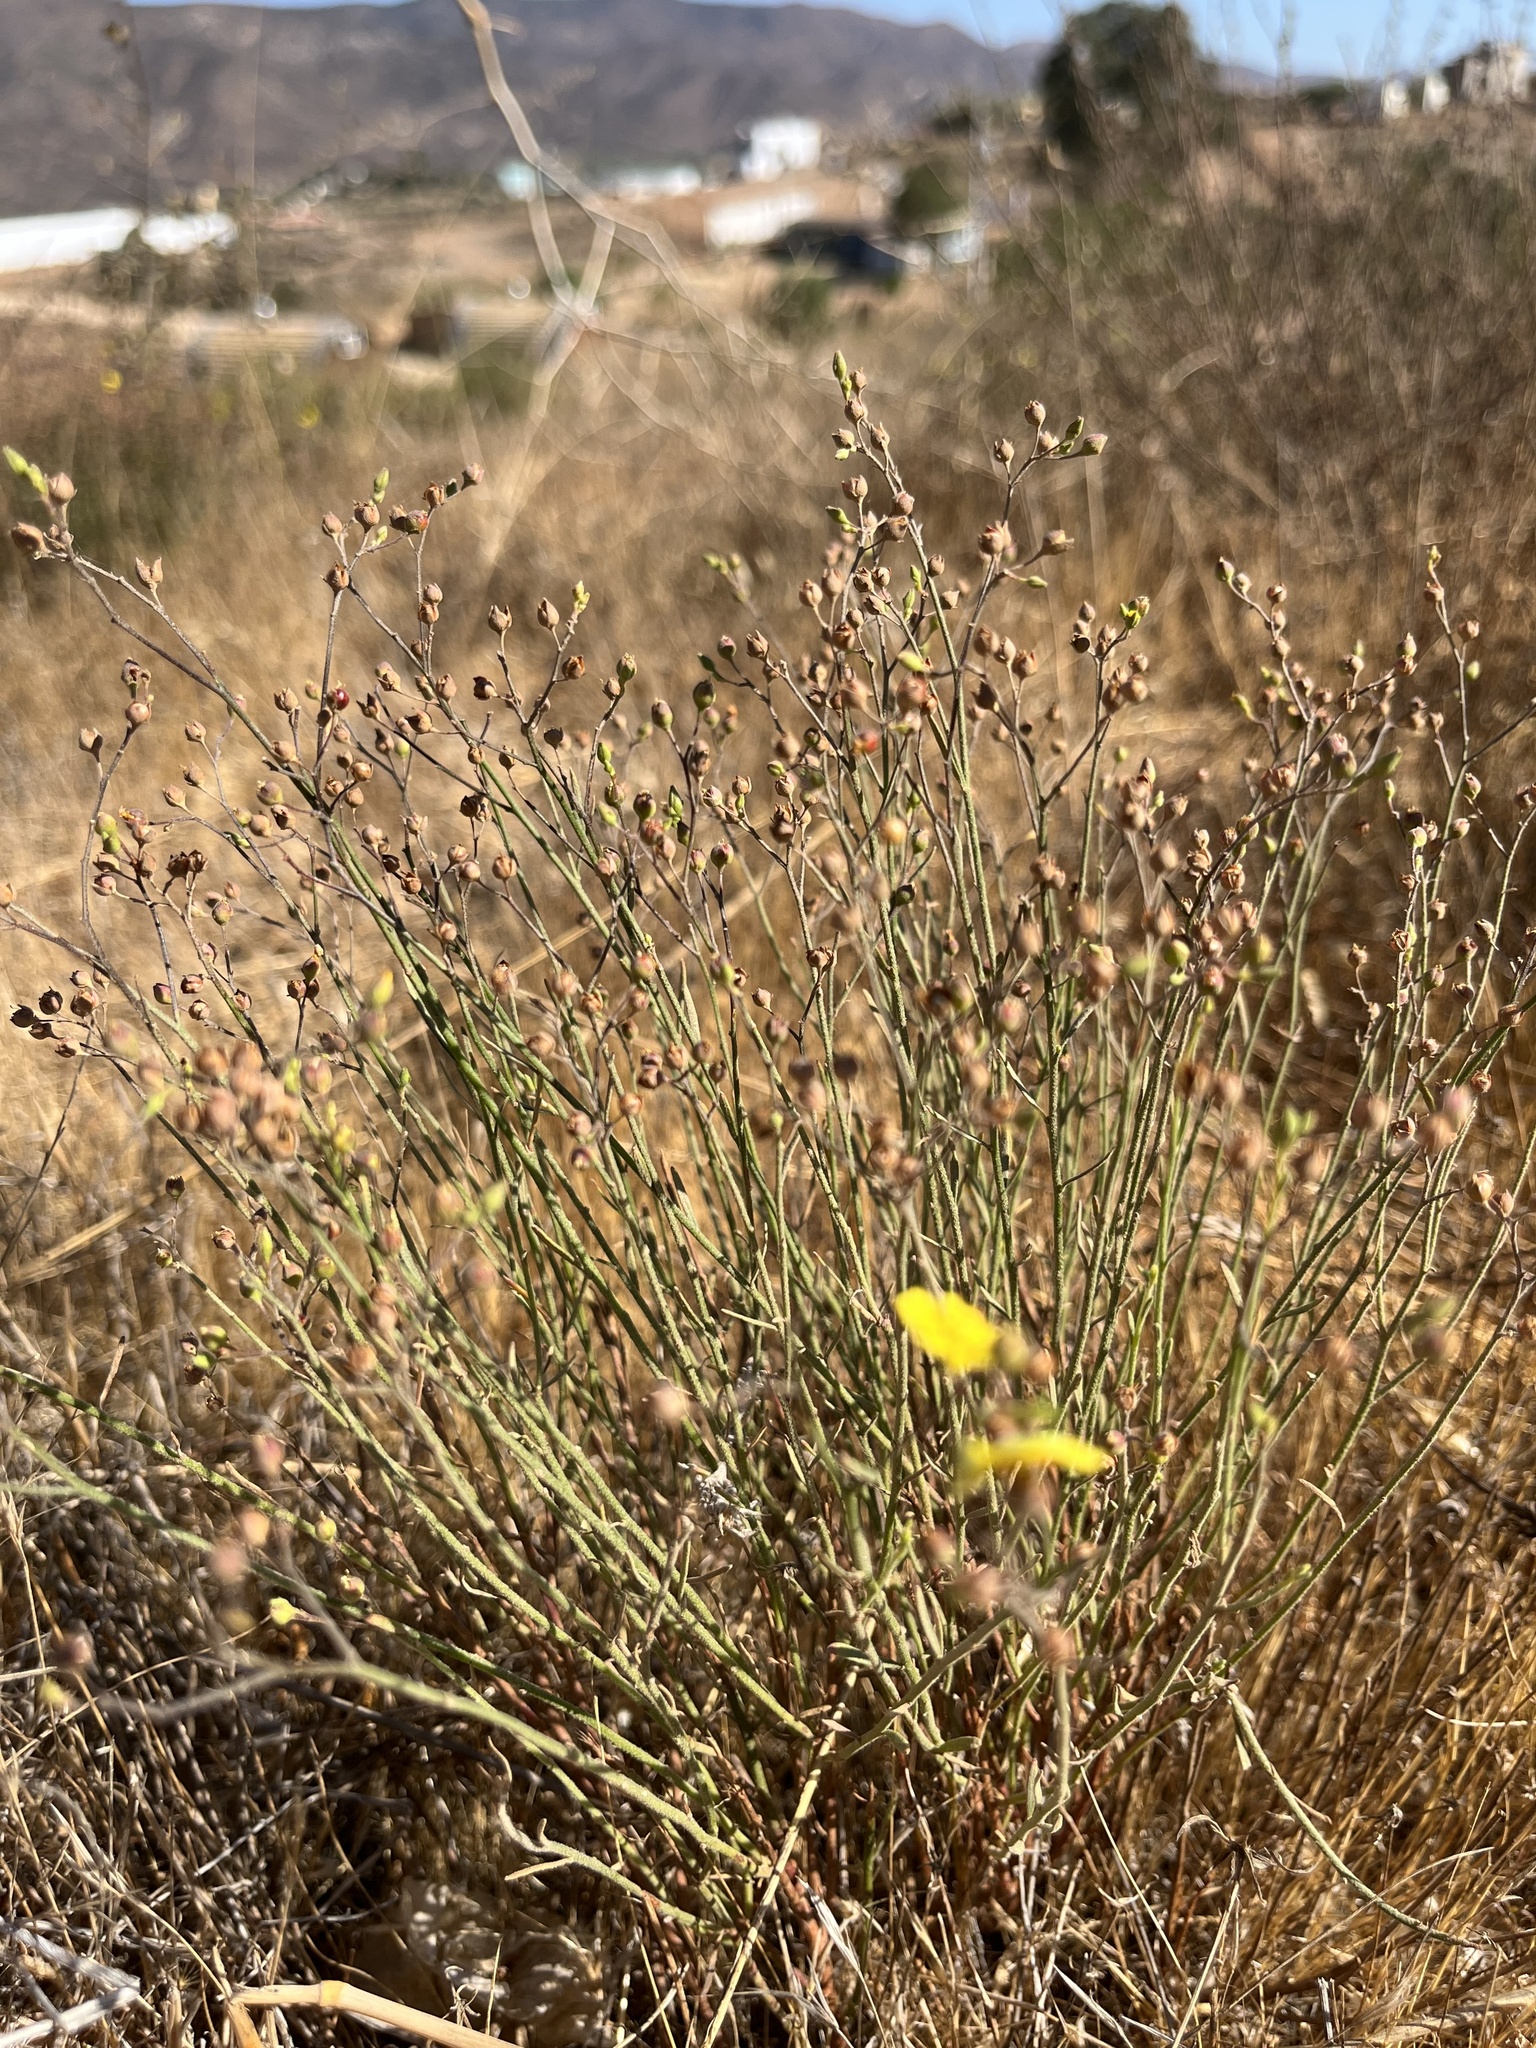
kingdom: Plantae
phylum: Tracheophyta
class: Magnoliopsida
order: Malvales
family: Cistaceae
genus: Crocanthemum
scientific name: Crocanthemum scoparium
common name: Broom-rose
